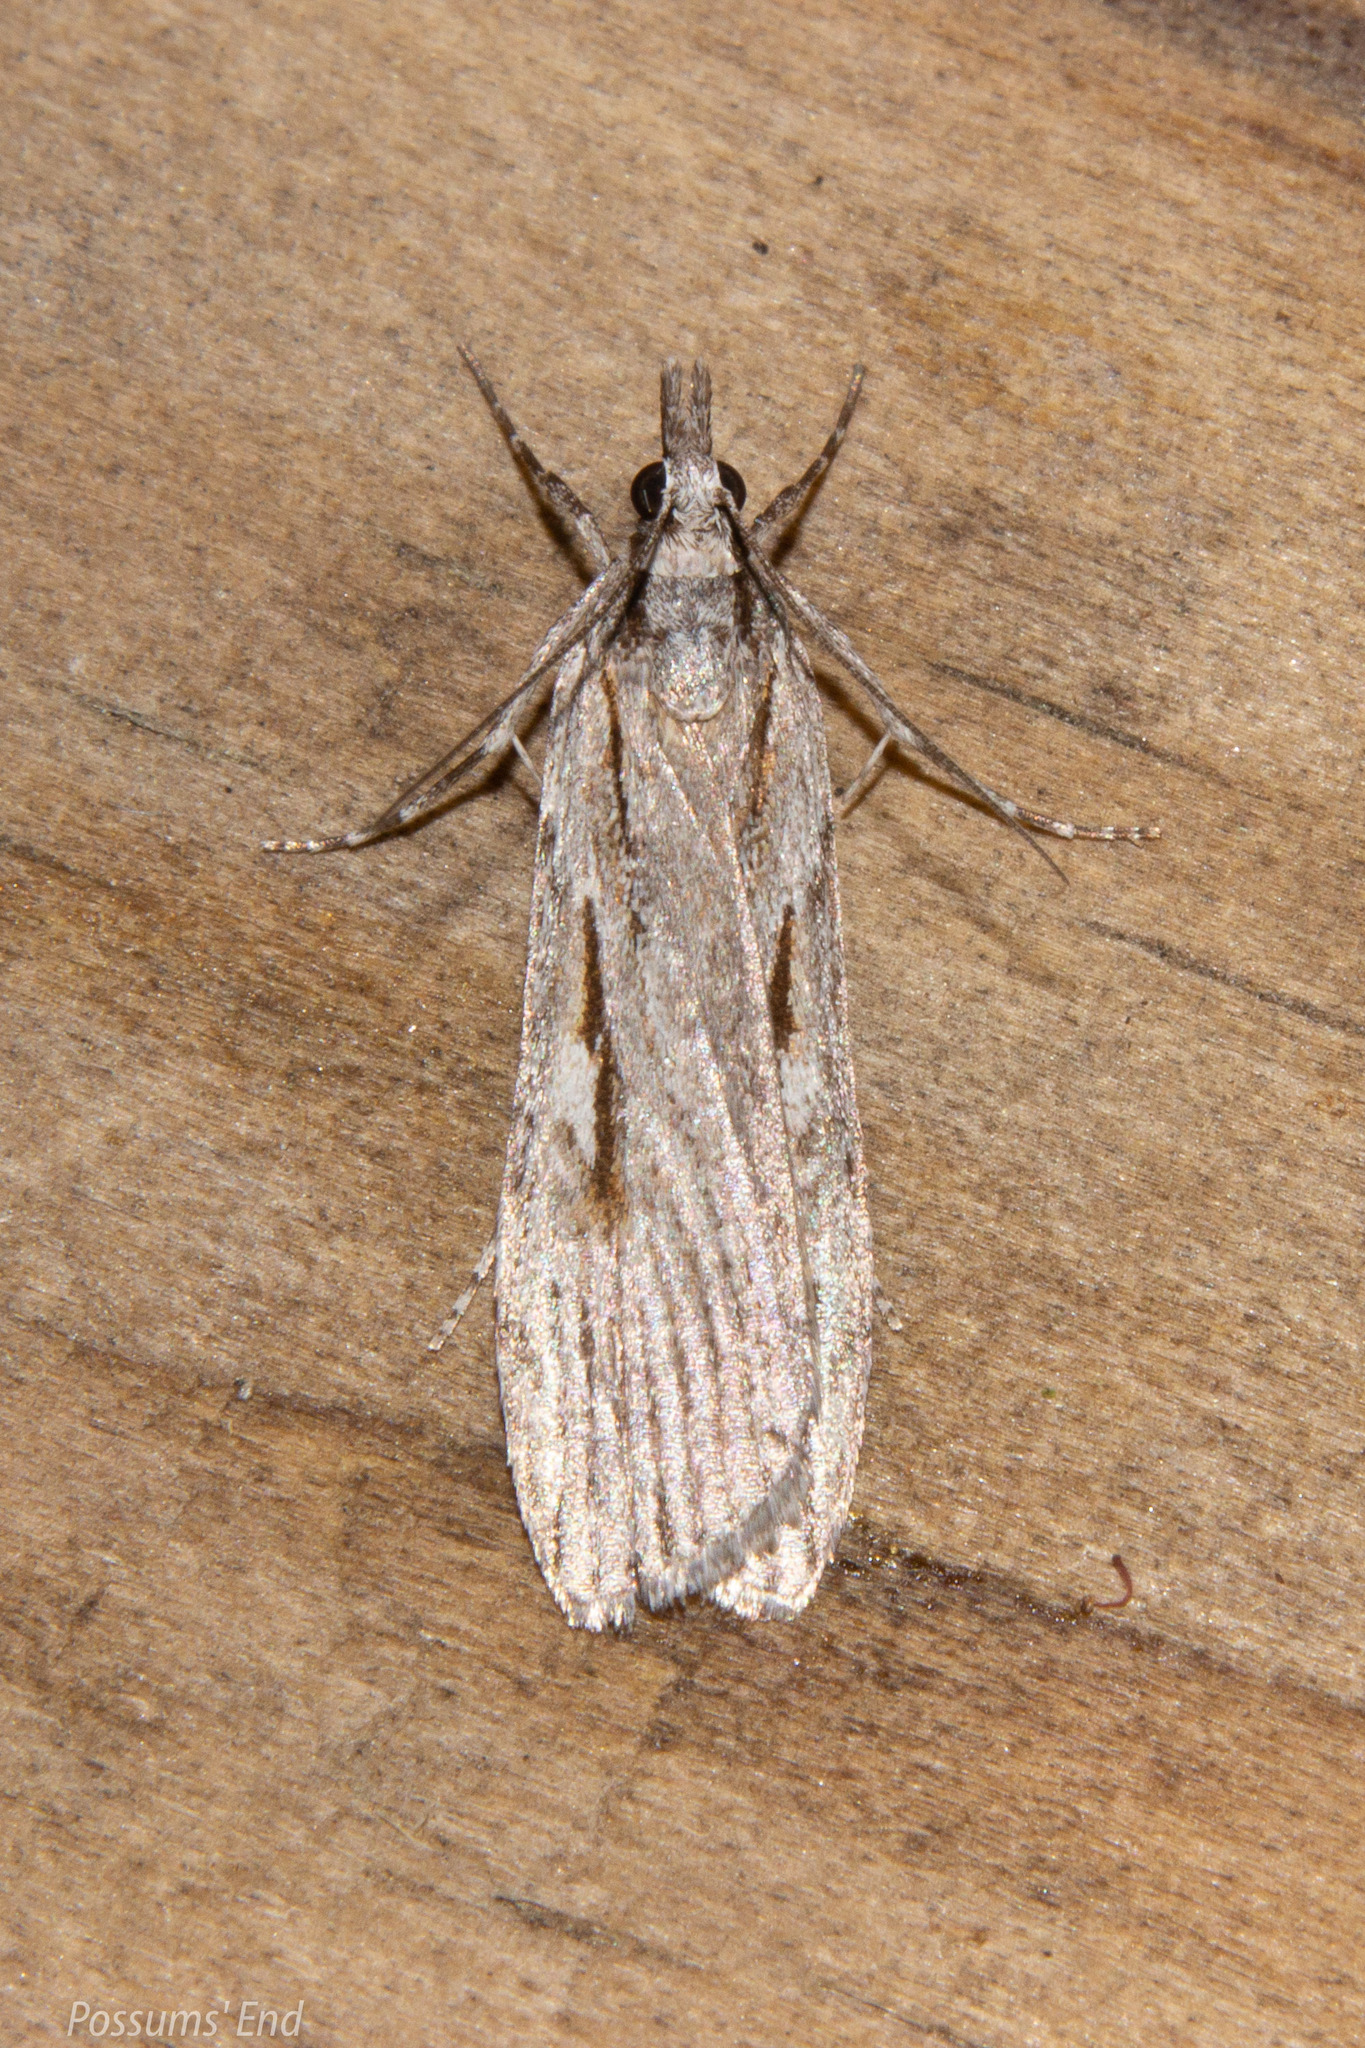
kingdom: Animalia
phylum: Arthropoda
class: Insecta
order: Lepidoptera
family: Crambidae
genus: Scoparia
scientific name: Scoparia indistinctalis
